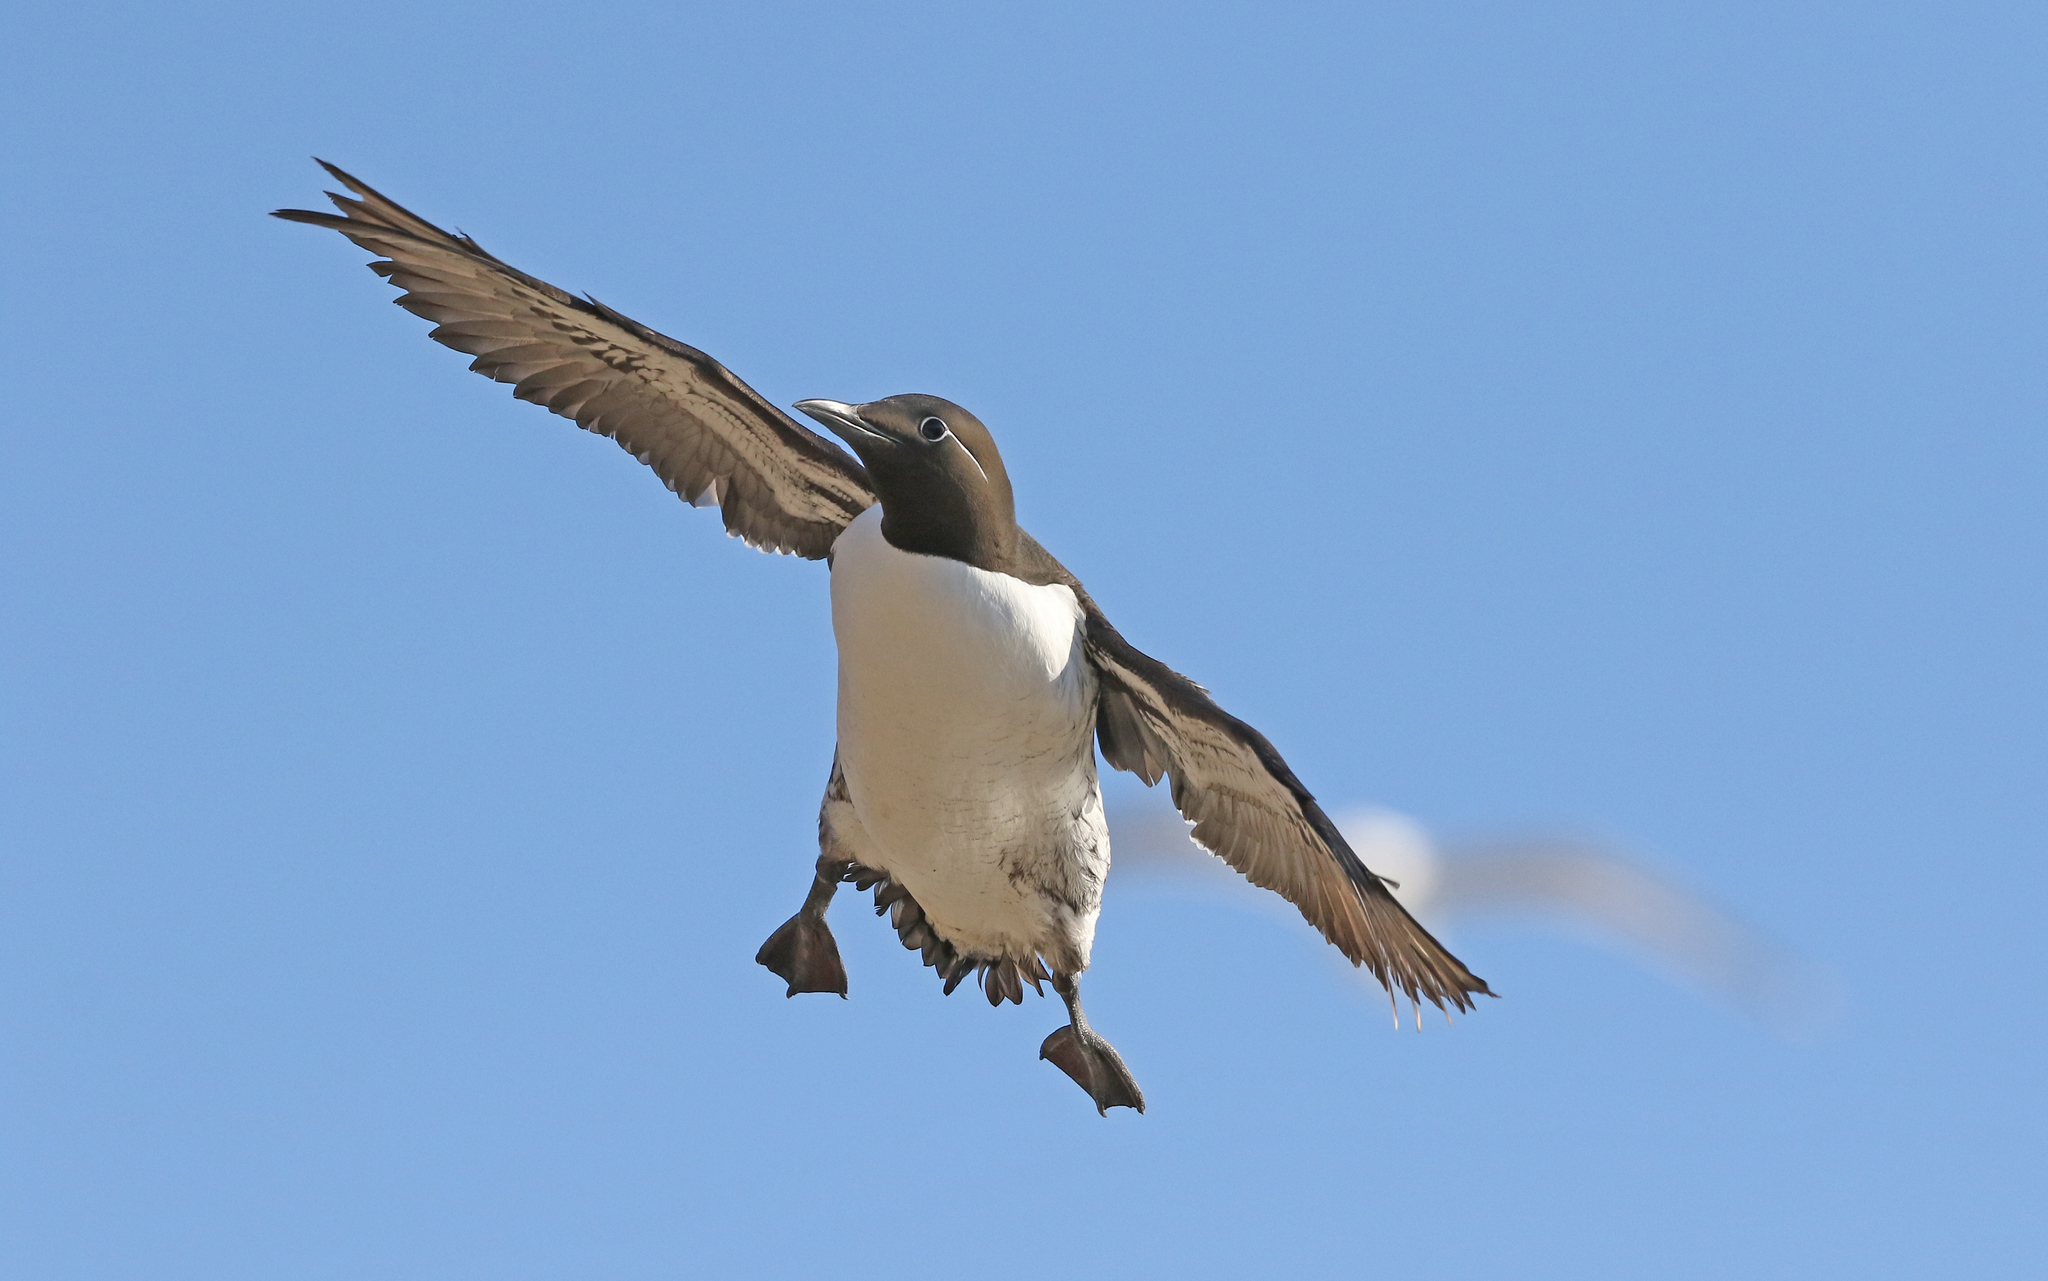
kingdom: Animalia
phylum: Chordata
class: Aves
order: Charadriiformes
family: Alcidae
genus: Uria
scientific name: Uria aalge
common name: Common murre
